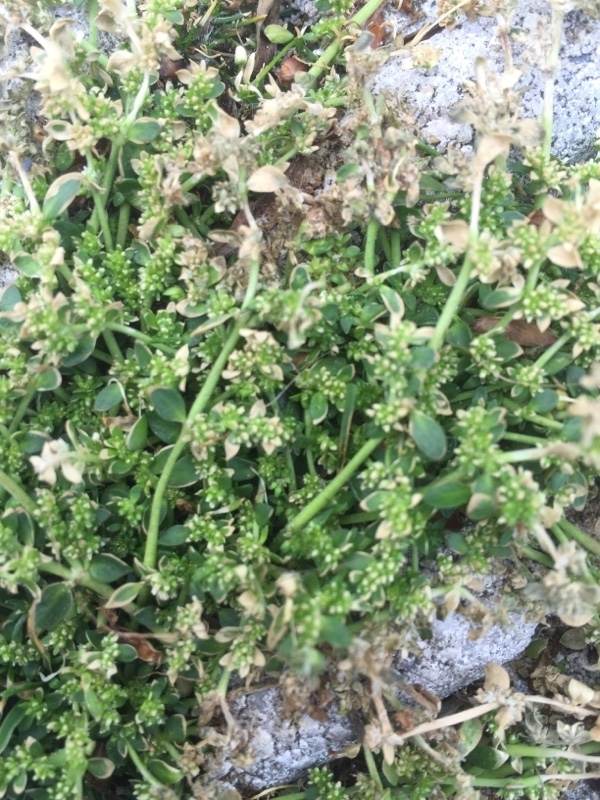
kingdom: Plantae
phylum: Tracheophyta
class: Magnoliopsida
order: Caryophyllales
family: Caryophyllaceae
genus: Herniaria
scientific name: Herniaria glabra
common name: Smooth rupturewort
